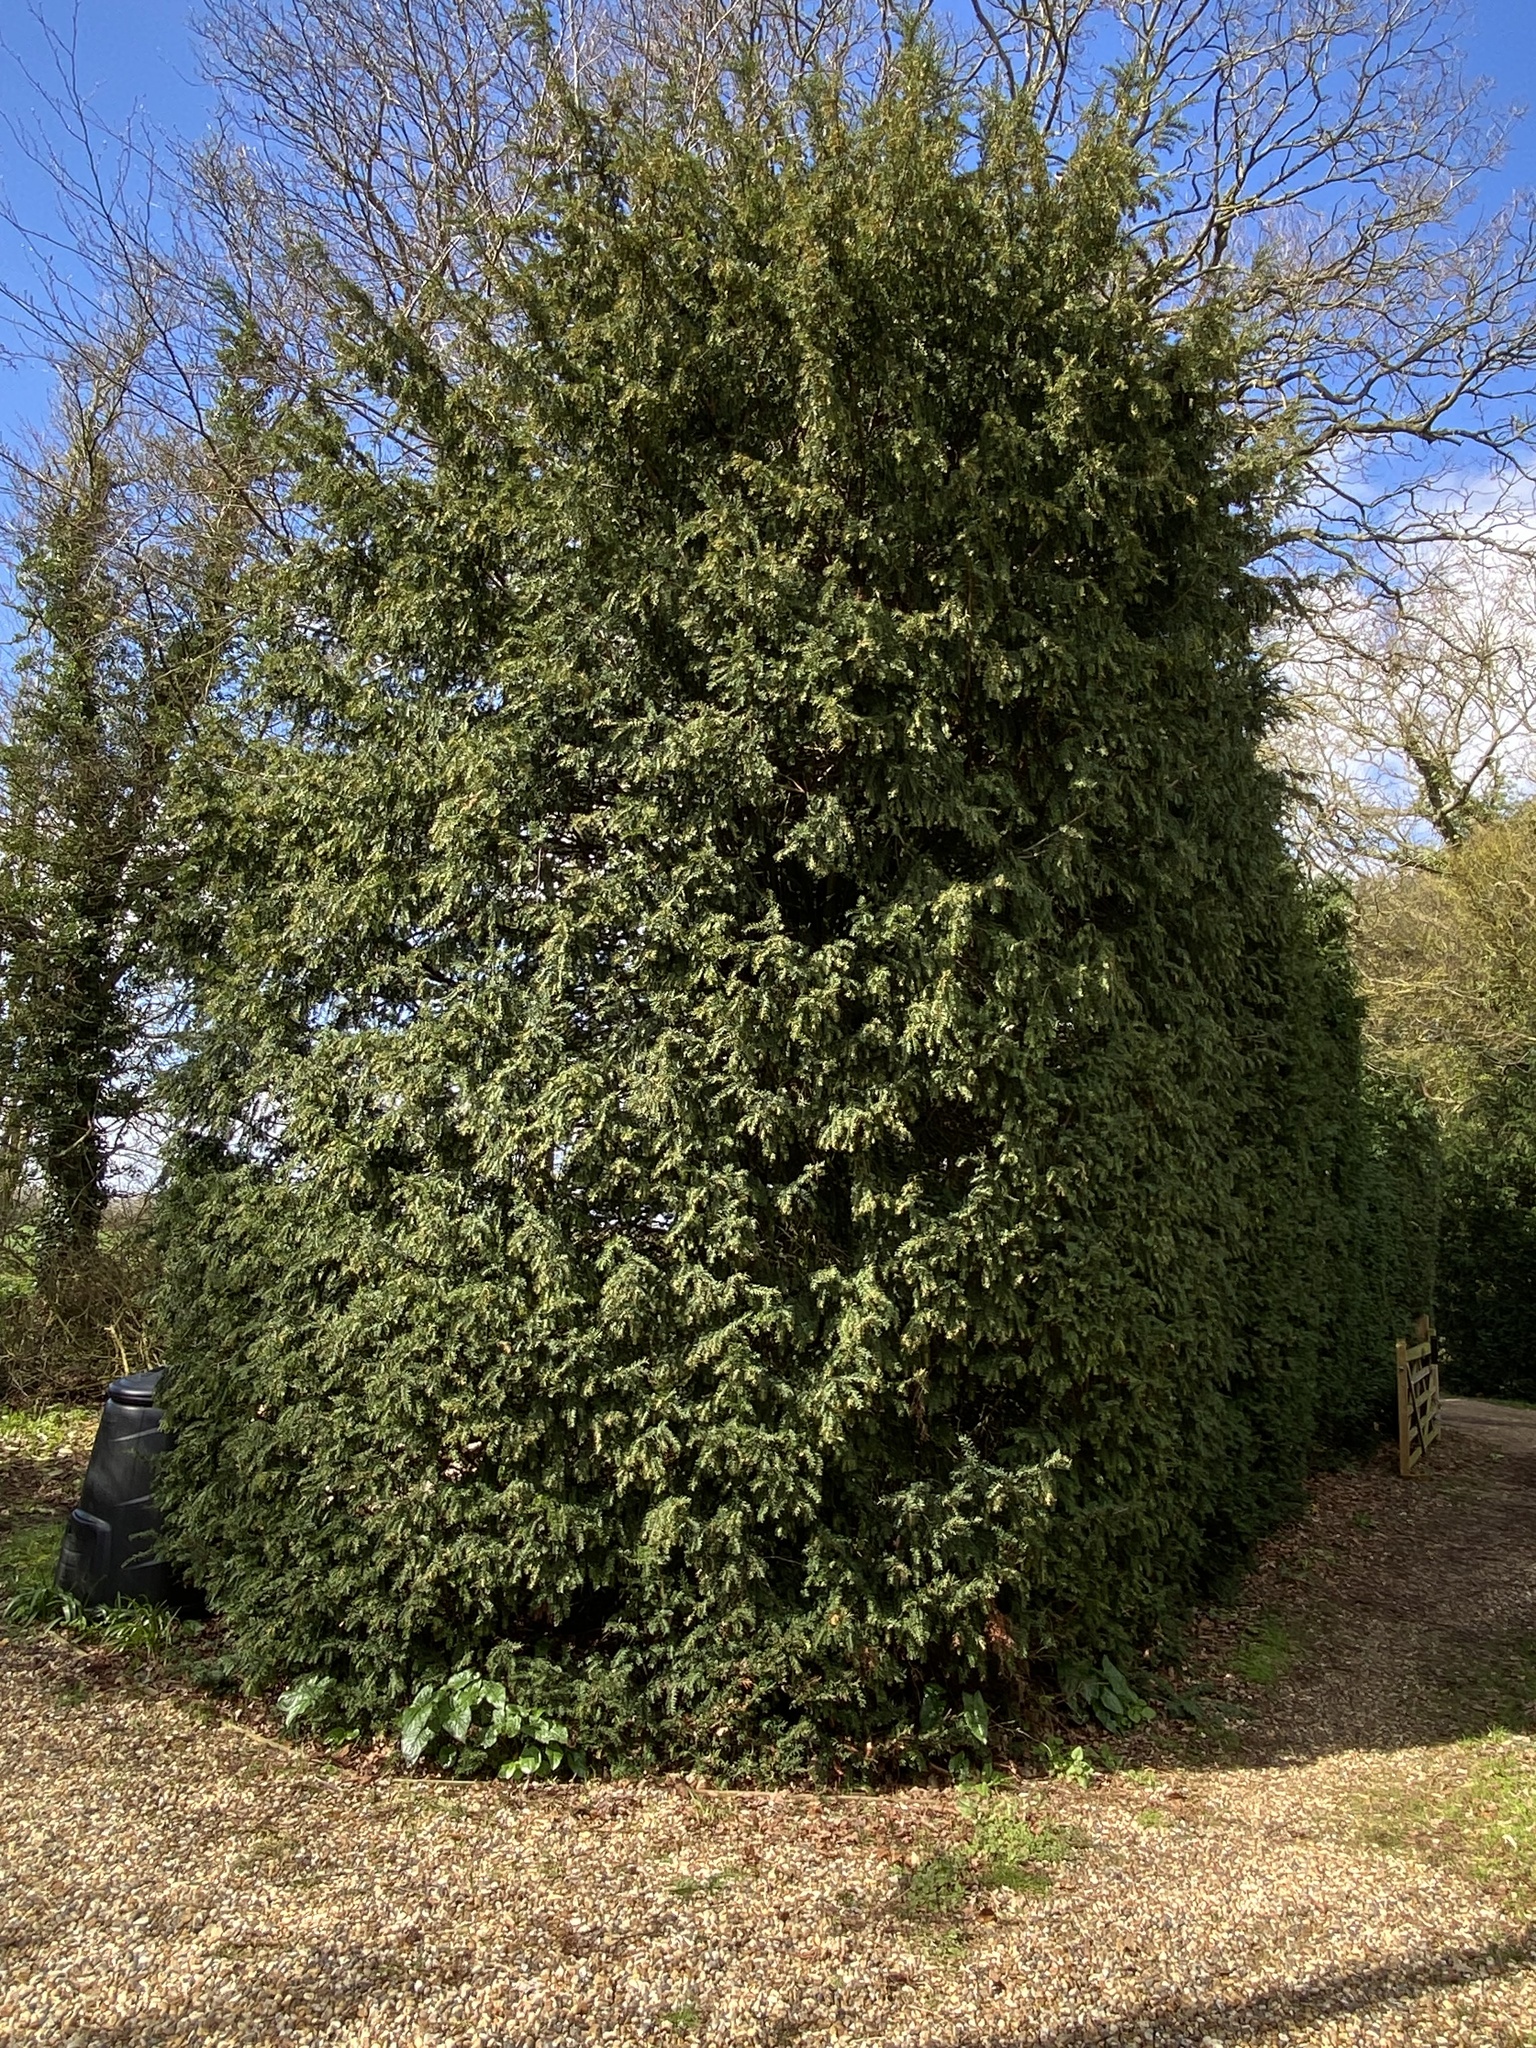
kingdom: Plantae
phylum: Tracheophyta
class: Pinopsida
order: Pinales
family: Taxaceae
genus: Taxus
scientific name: Taxus baccata
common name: Yew
